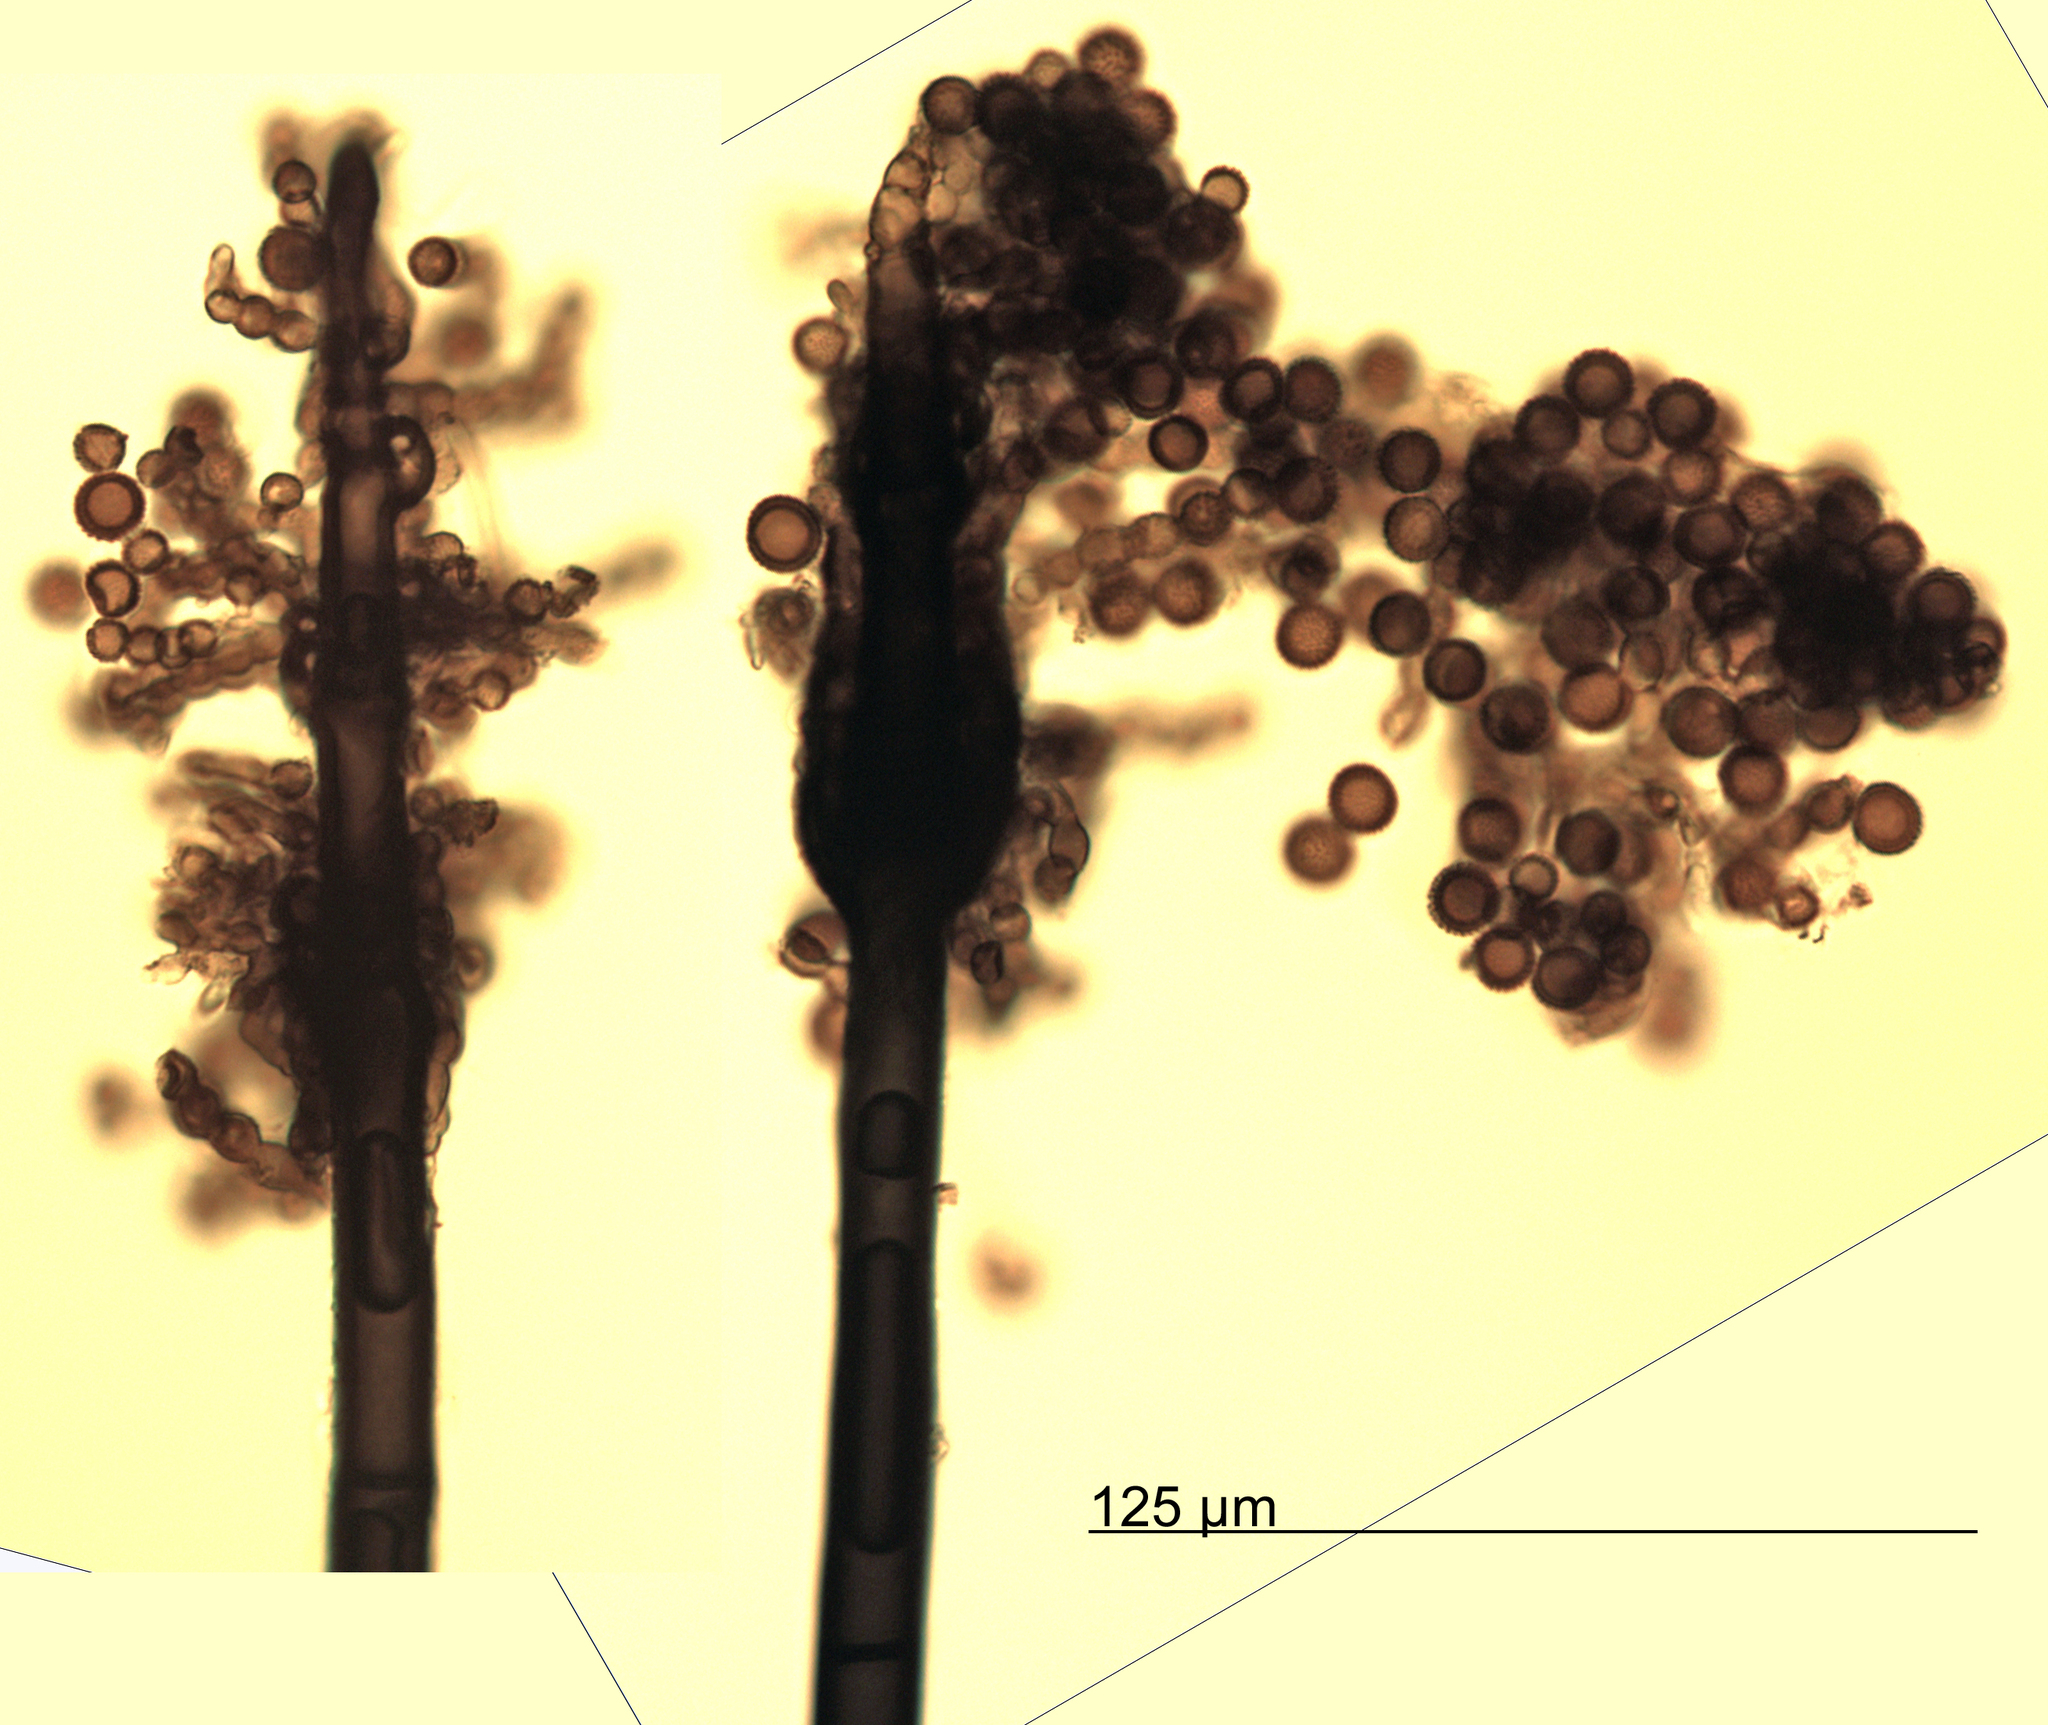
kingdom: Fungi
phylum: Ascomycota
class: Dothideomycetes
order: Pleosporales
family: Periconiaceae
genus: Periconia
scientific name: Periconia atra
